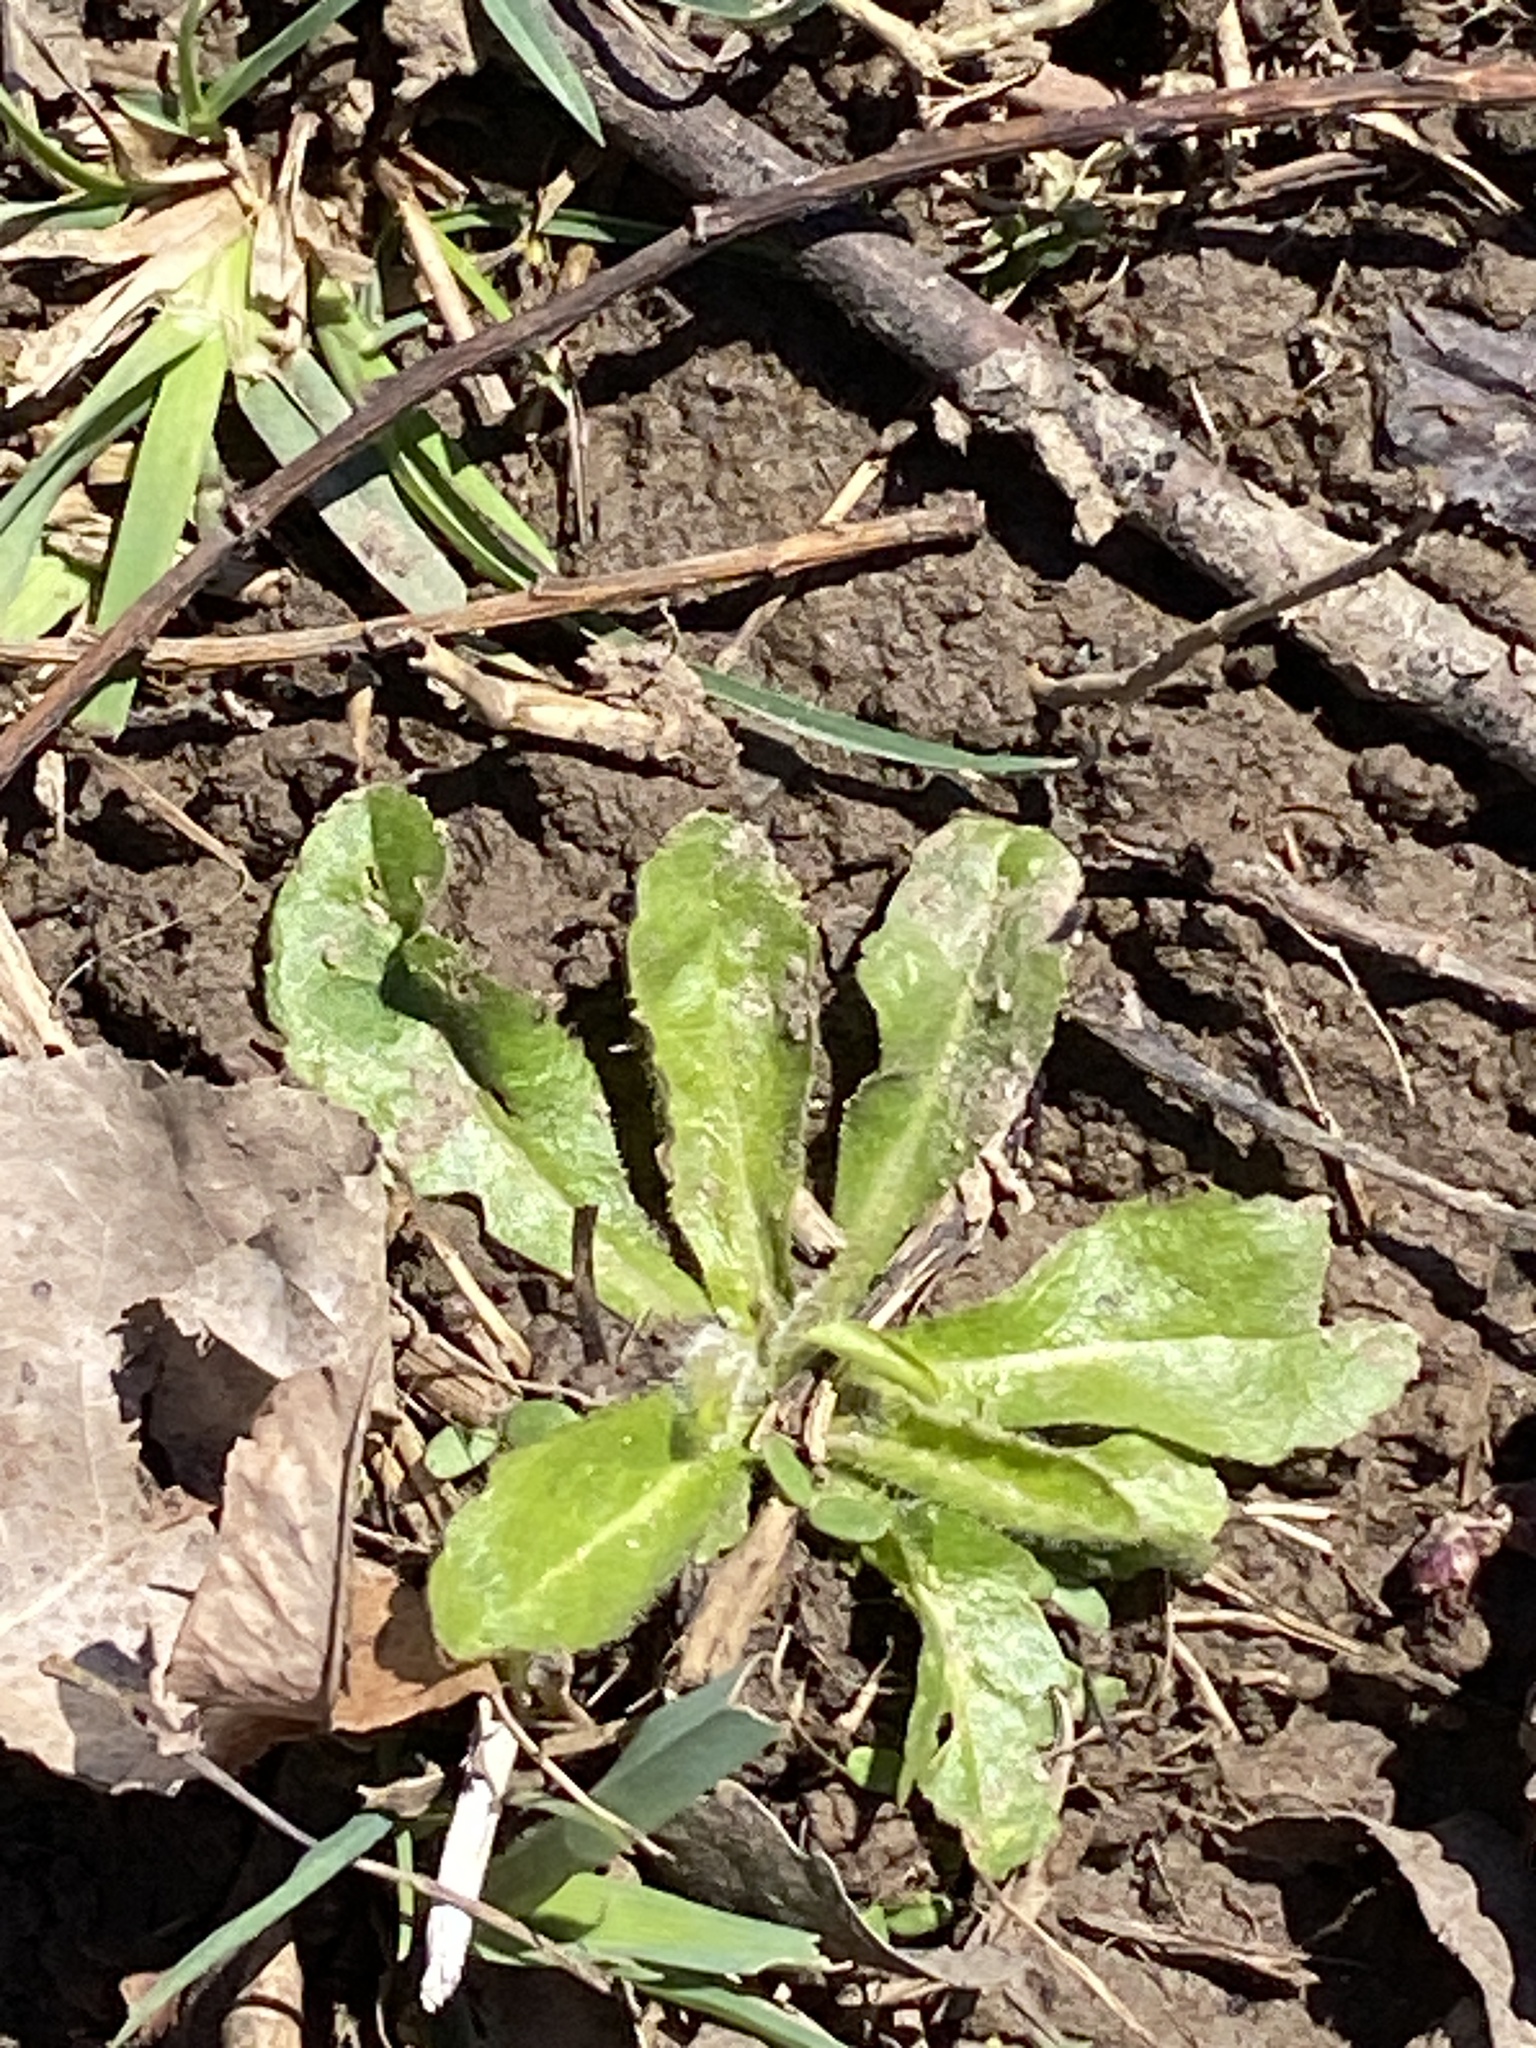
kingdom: Plantae
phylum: Tracheophyta
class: Magnoliopsida
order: Asterales
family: Asteraceae
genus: Bellis
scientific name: Bellis perennis
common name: Lawndaisy
